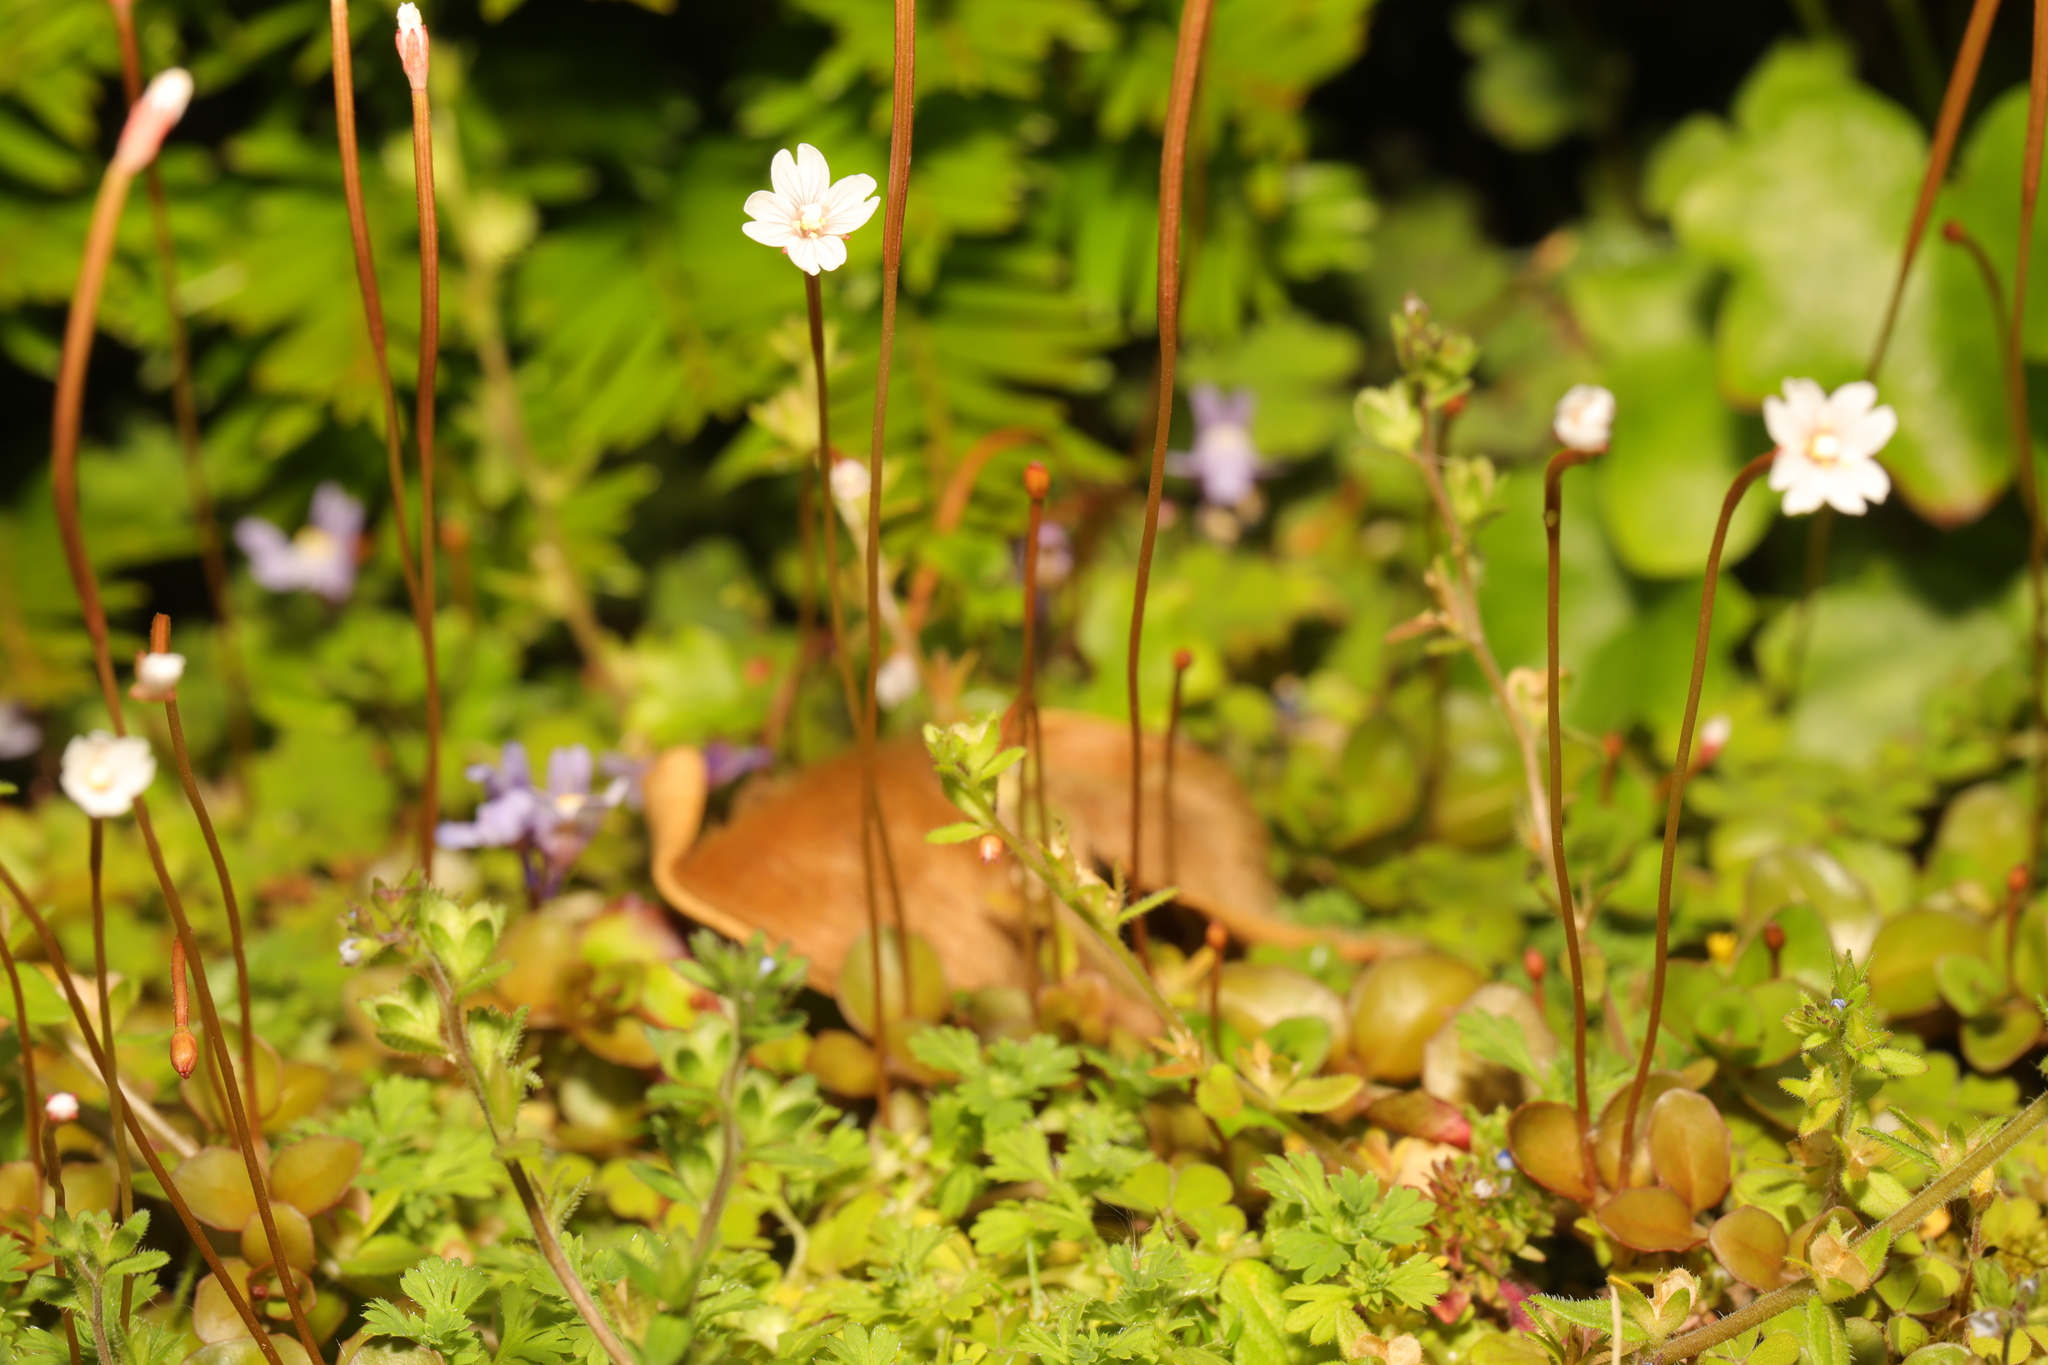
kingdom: Plantae
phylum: Tracheophyta
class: Magnoliopsida
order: Myrtales
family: Onagraceae
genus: Epilobium
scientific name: Epilobium brunnescens
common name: New zealand willowherb
